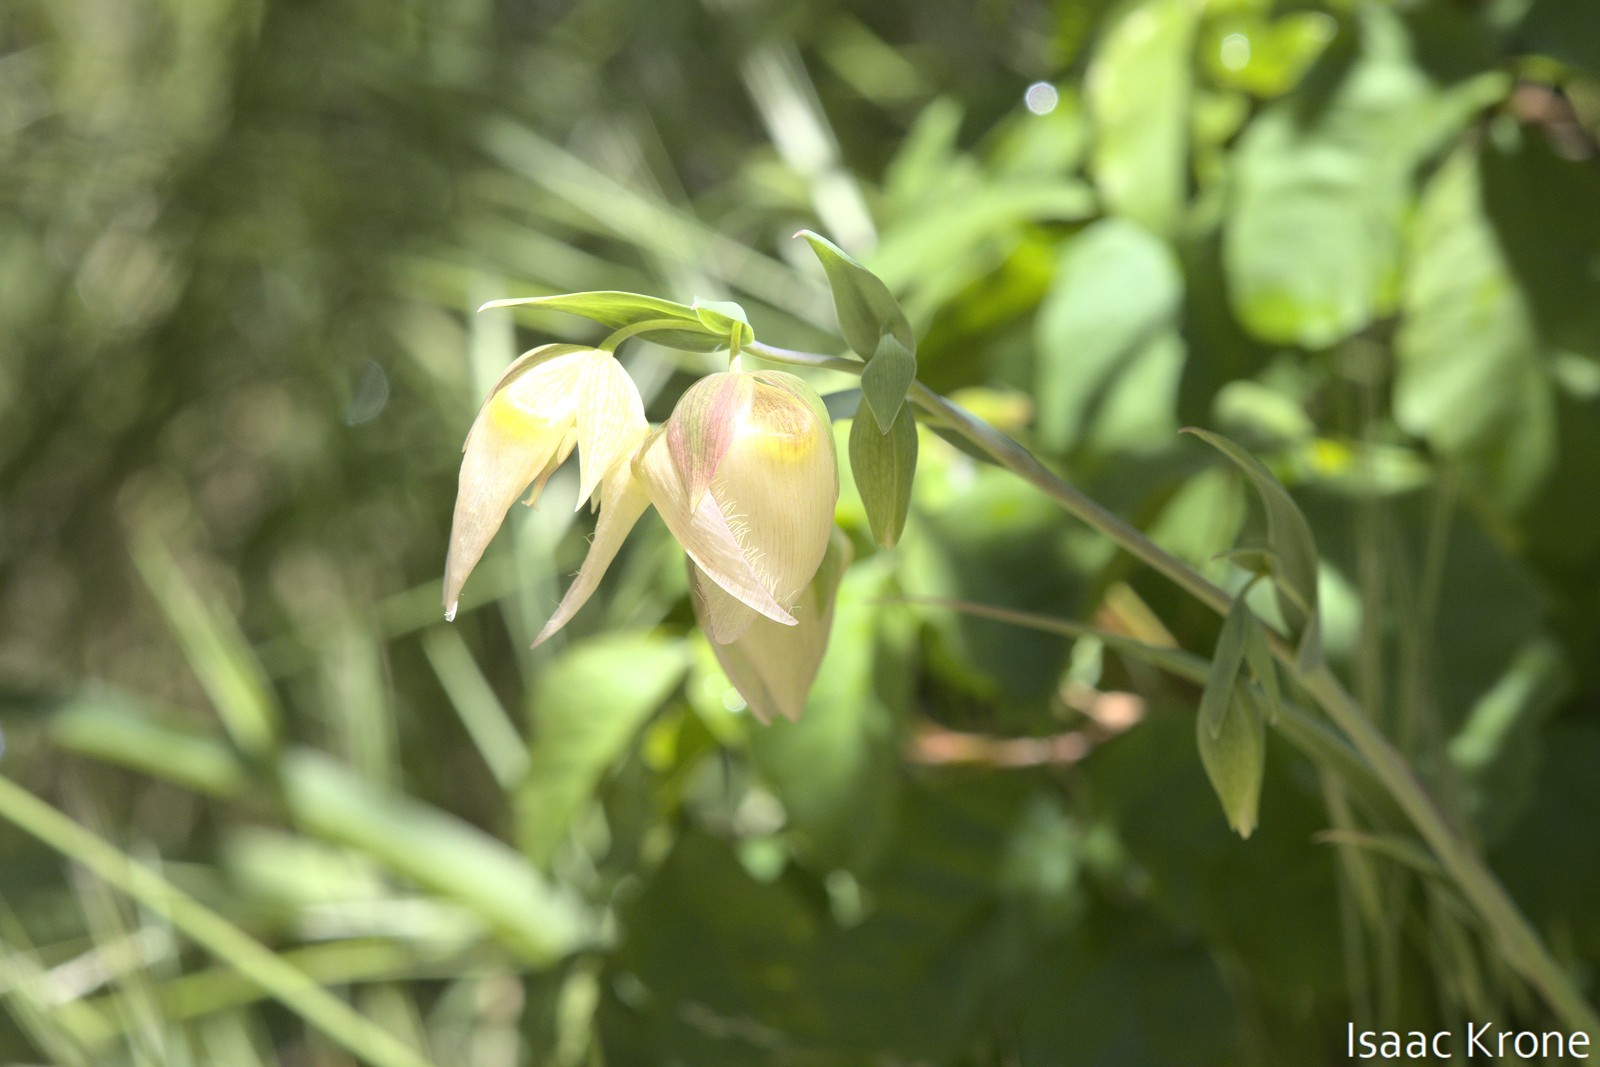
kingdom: Plantae
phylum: Tracheophyta
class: Liliopsida
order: Liliales
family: Liliaceae
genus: Calochortus
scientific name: Calochortus albus
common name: Fairy-lantern
